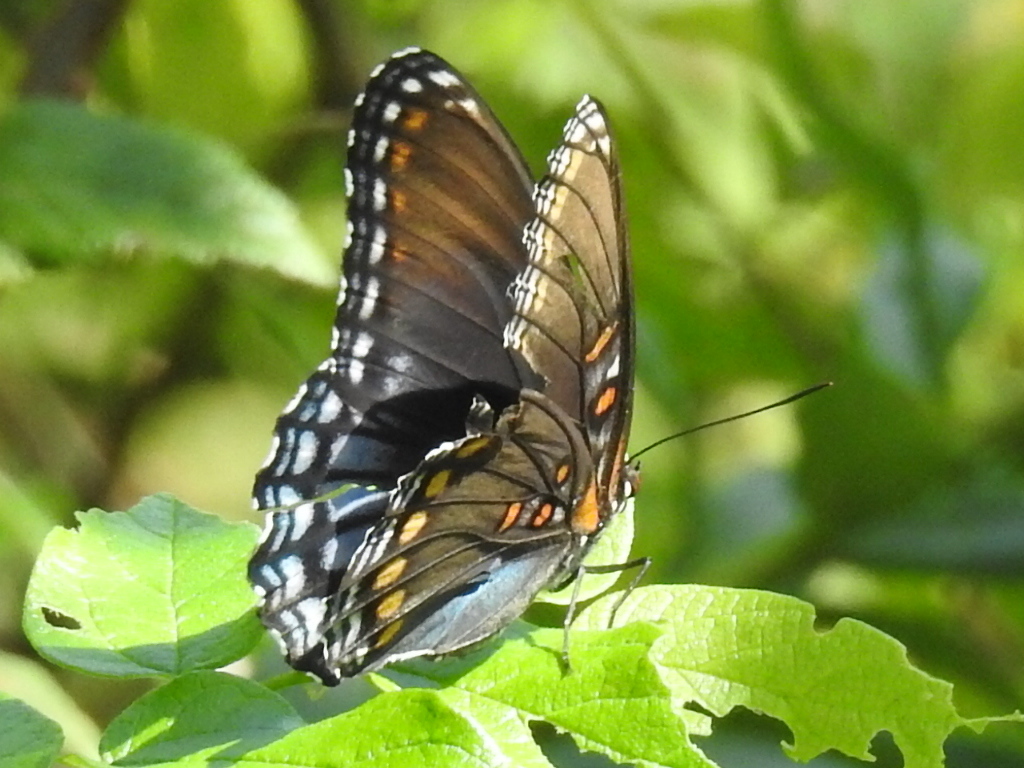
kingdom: Animalia
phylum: Arthropoda
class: Insecta
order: Lepidoptera
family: Nymphalidae
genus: Limenitis
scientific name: Limenitis arthemis
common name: Red-spotted admiral
